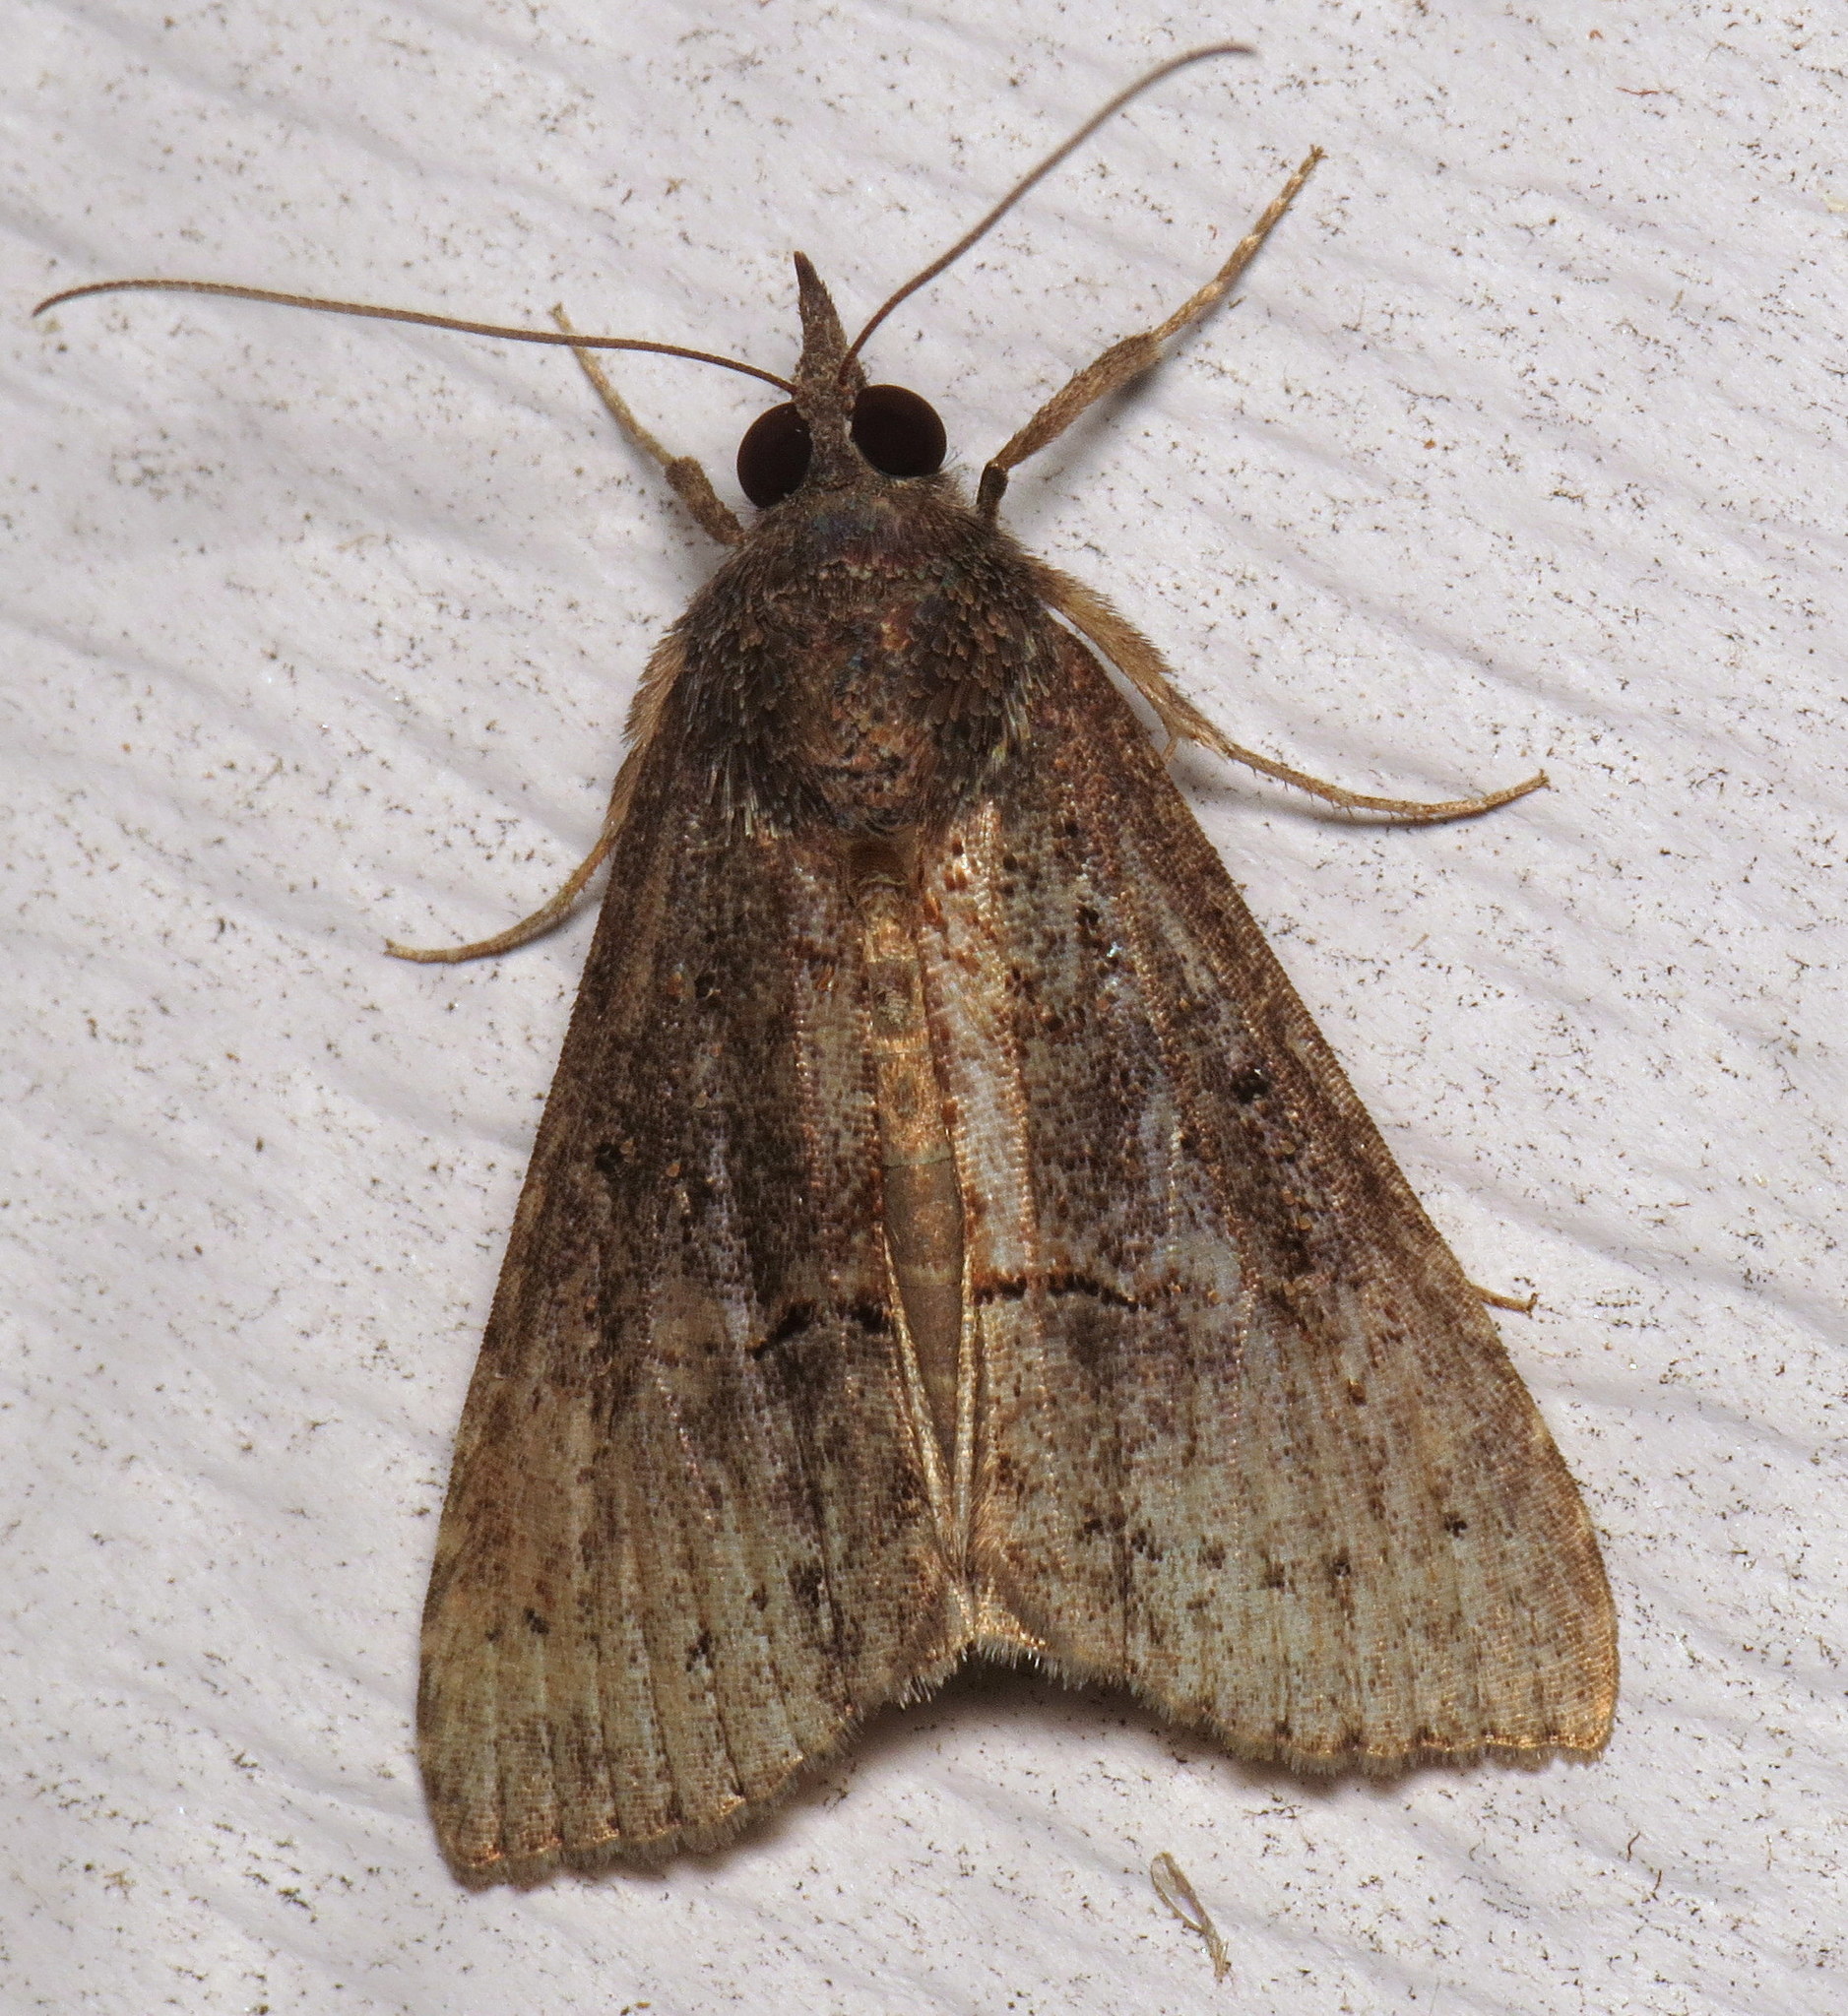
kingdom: Animalia
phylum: Arthropoda
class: Insecta
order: Lepidoptera
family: Erebidae
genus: Hypena
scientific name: Hypena scabra
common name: Green cloverworm
